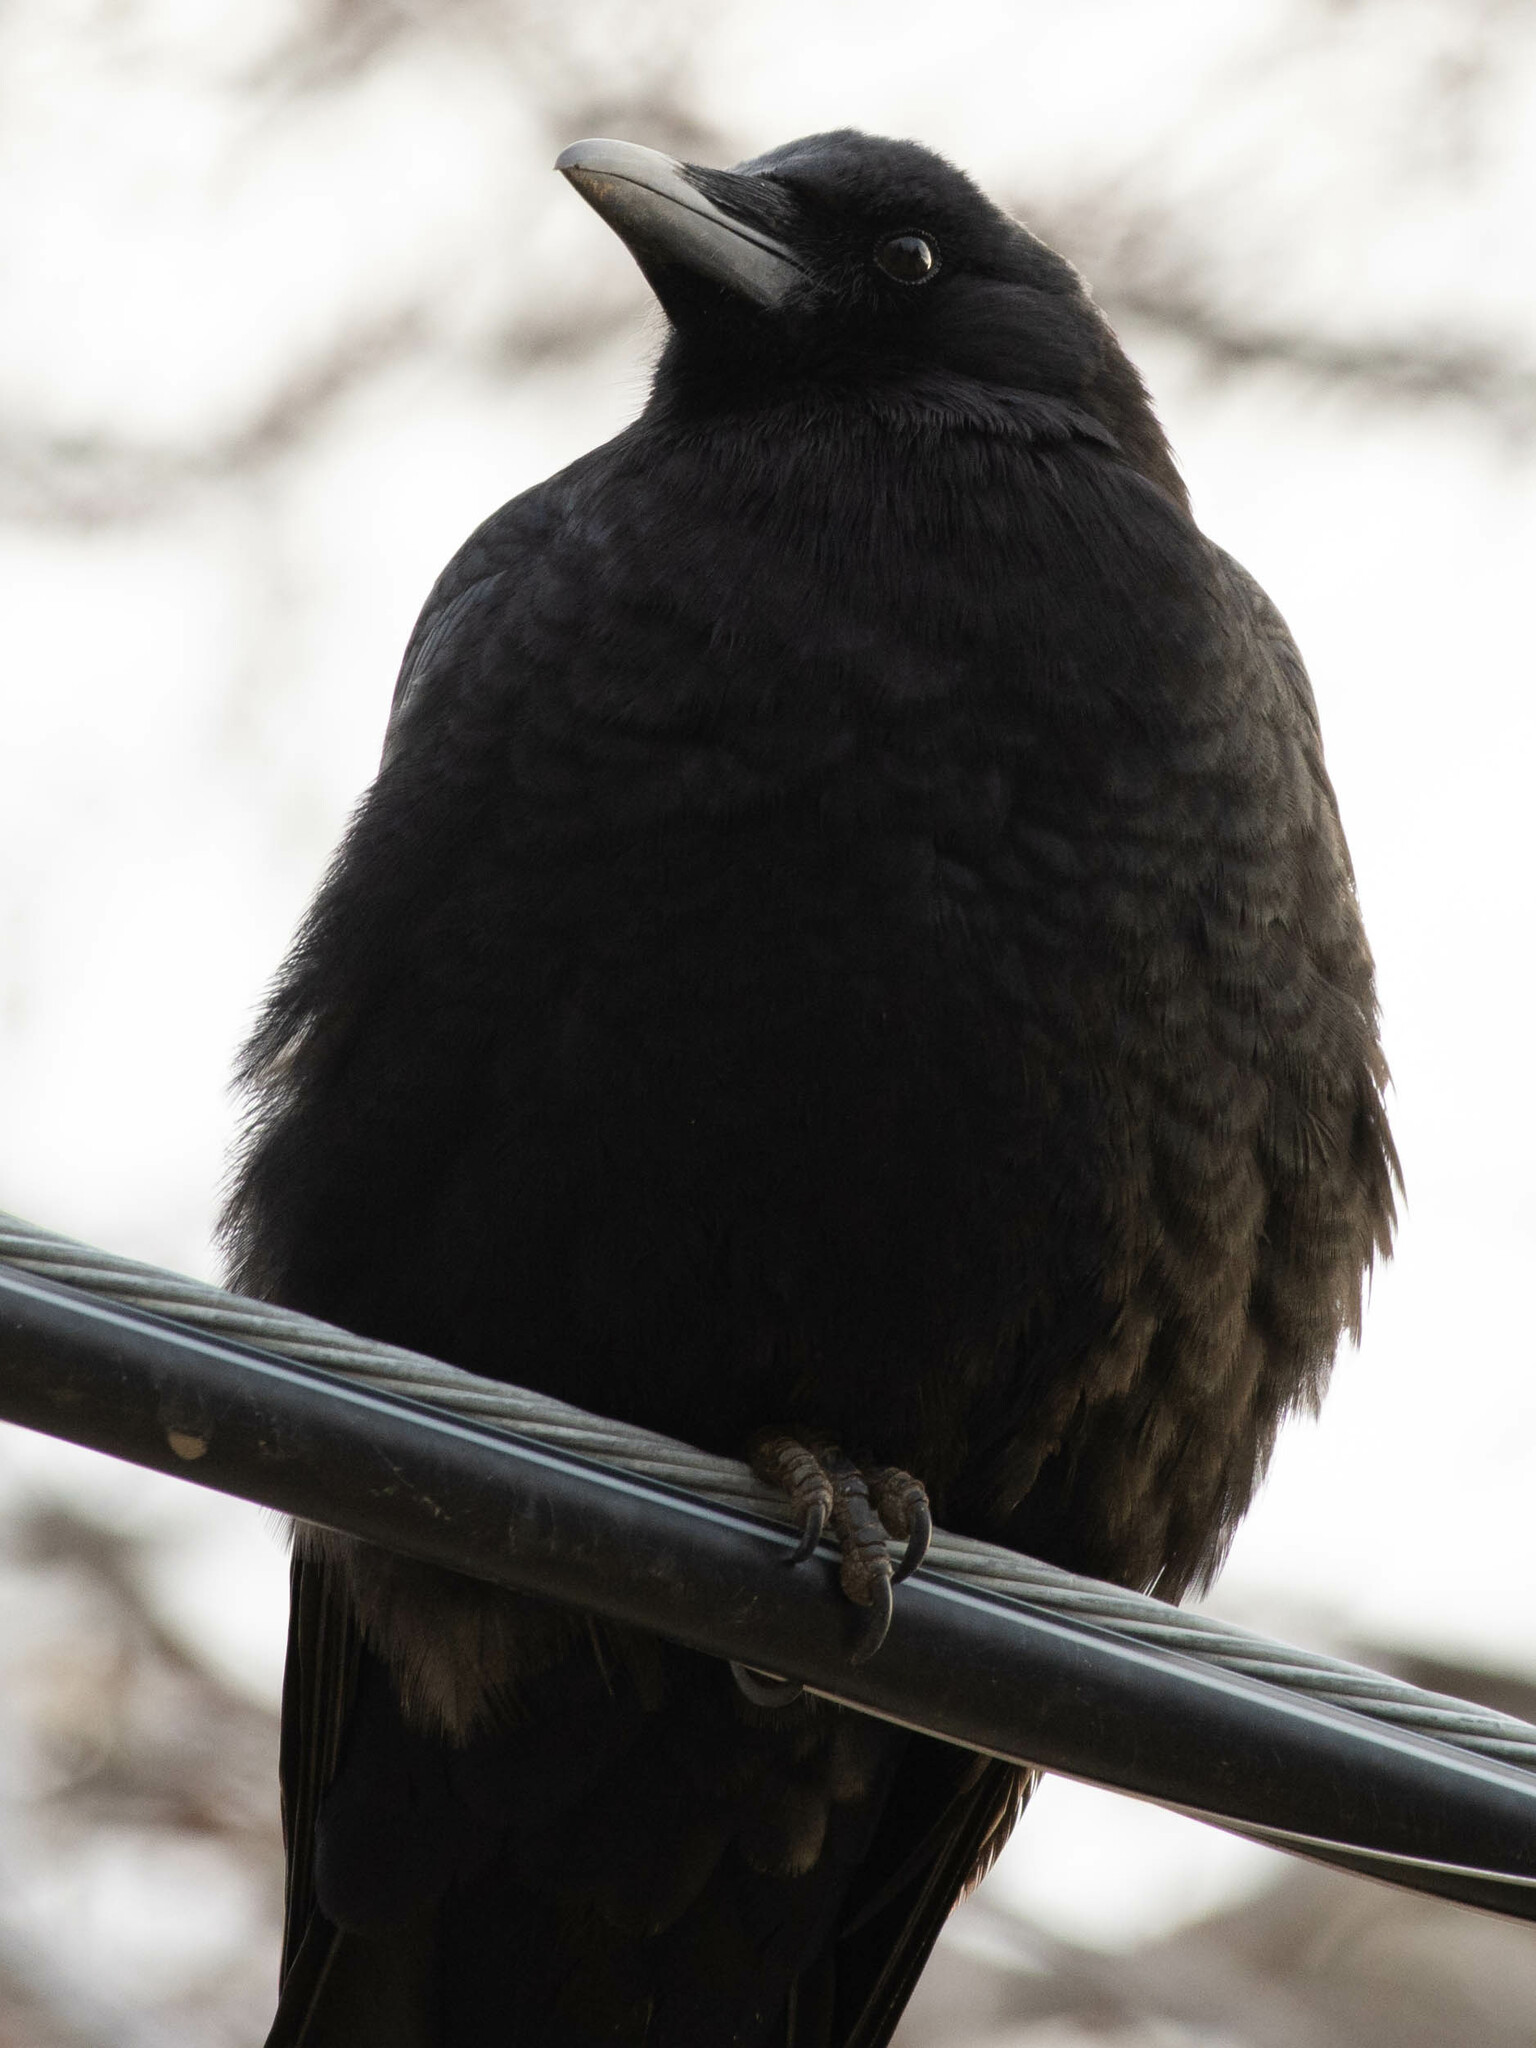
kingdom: Animalia
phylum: Chordata
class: Aves
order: Passeriformes
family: Corvidae
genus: Corvus
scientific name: Corvus brachyrhynchos
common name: American crow
